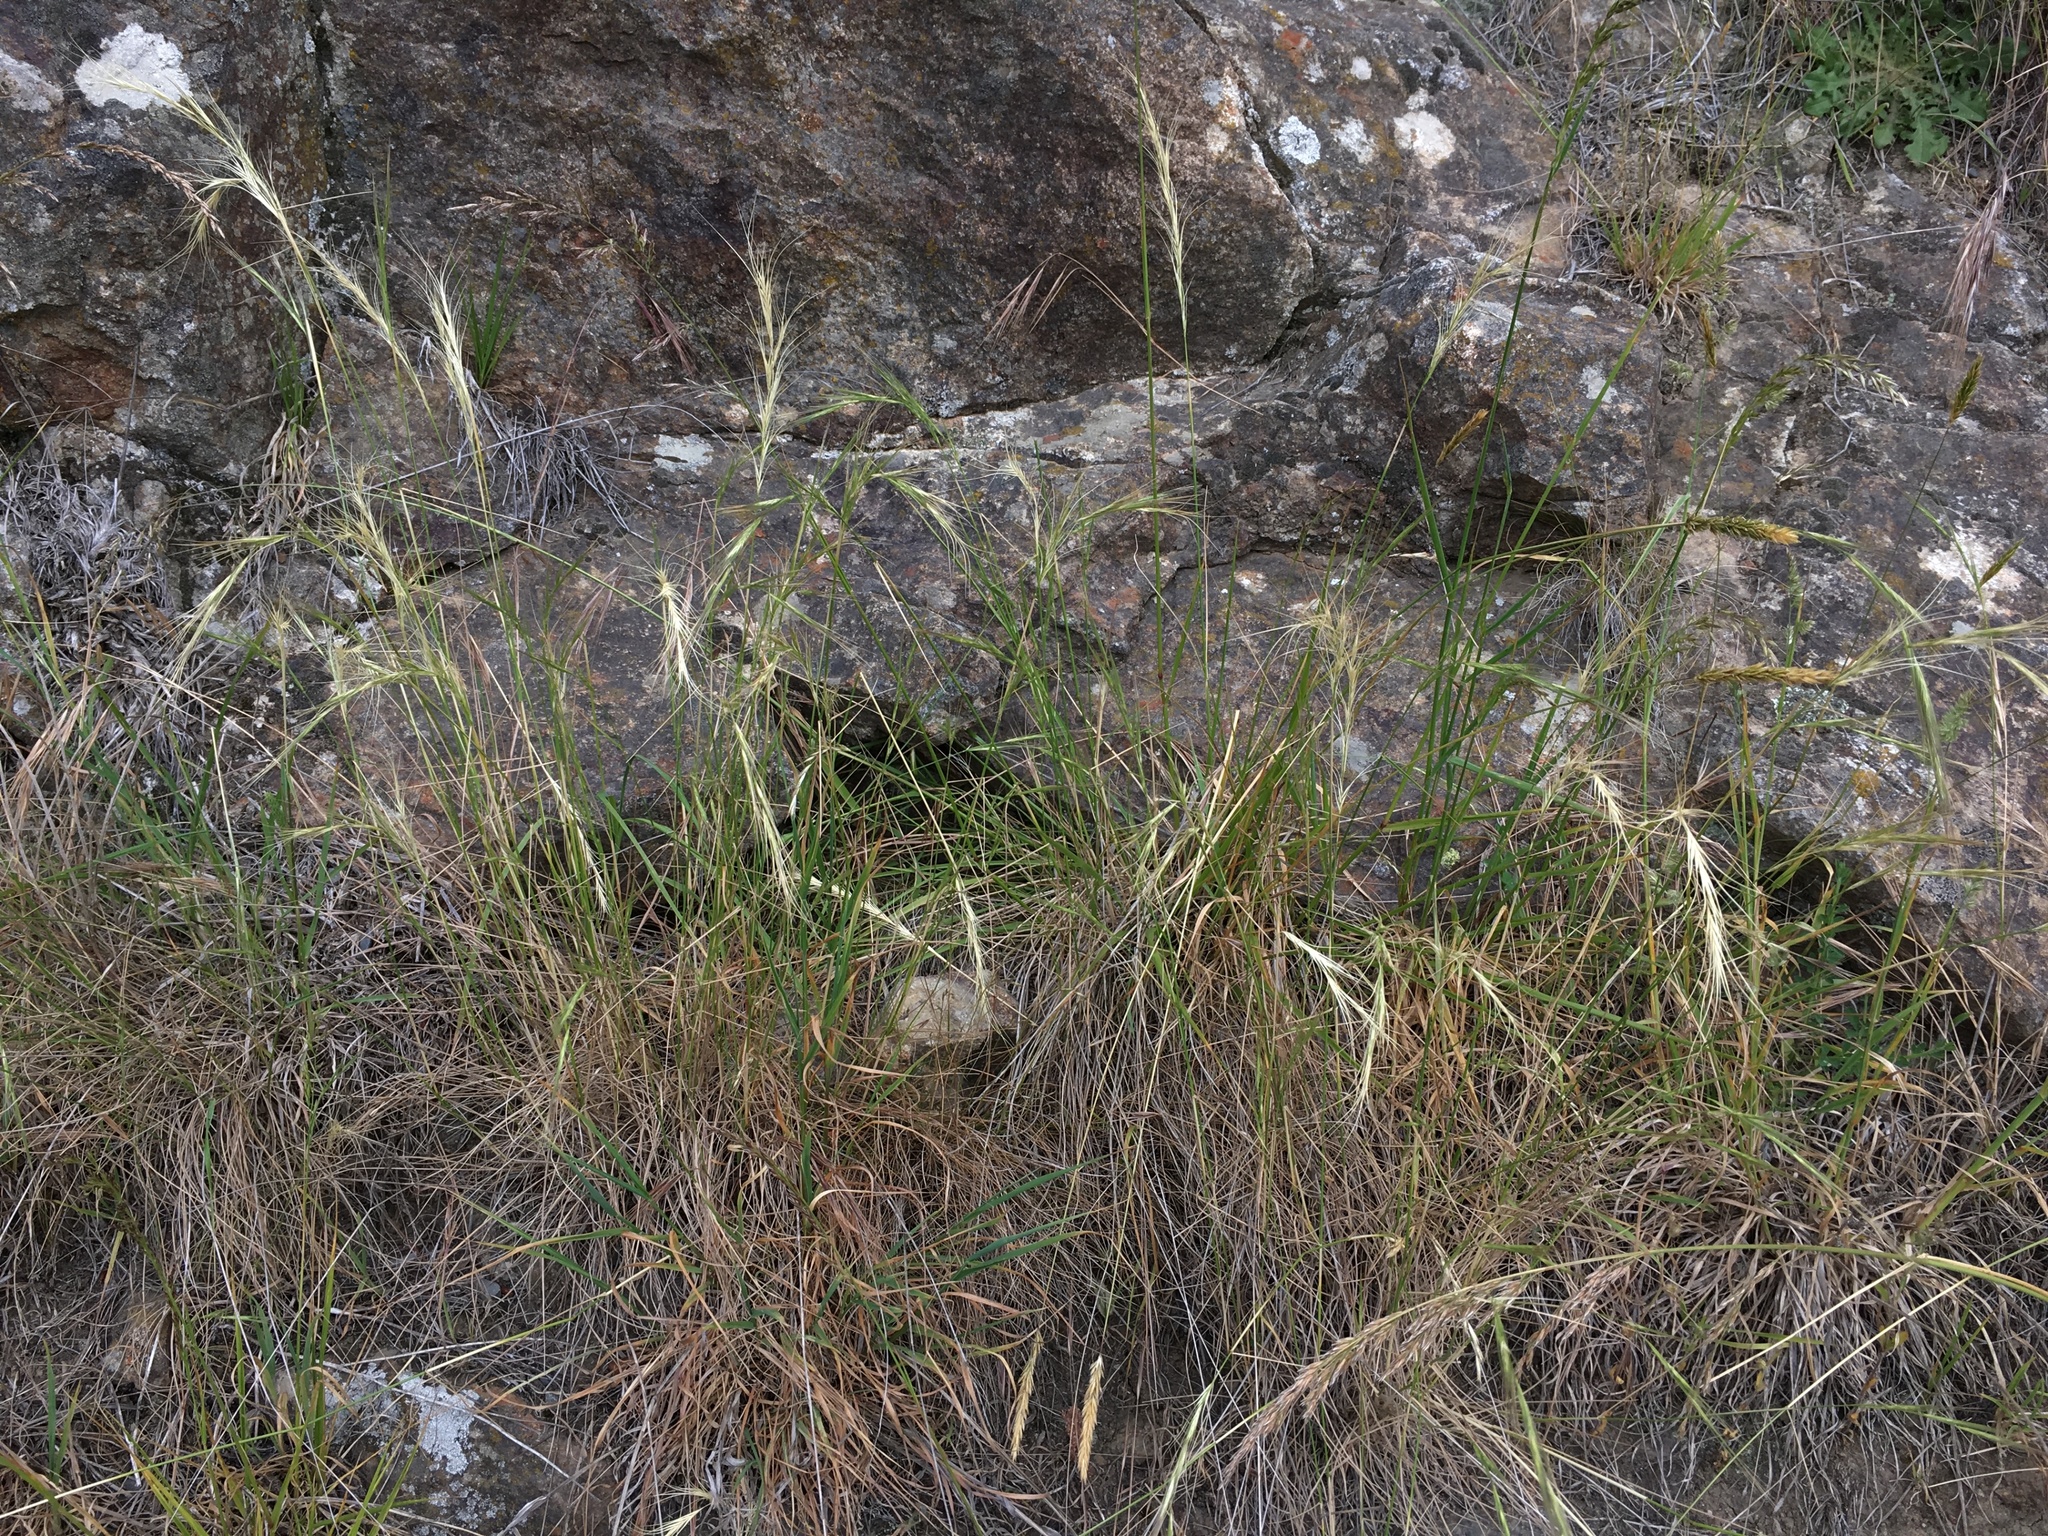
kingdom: Plantae
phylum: Tracheophyta
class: Liliopsida
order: Poales
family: Poaceae
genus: Anthosachne
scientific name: Anthosachne solandri
